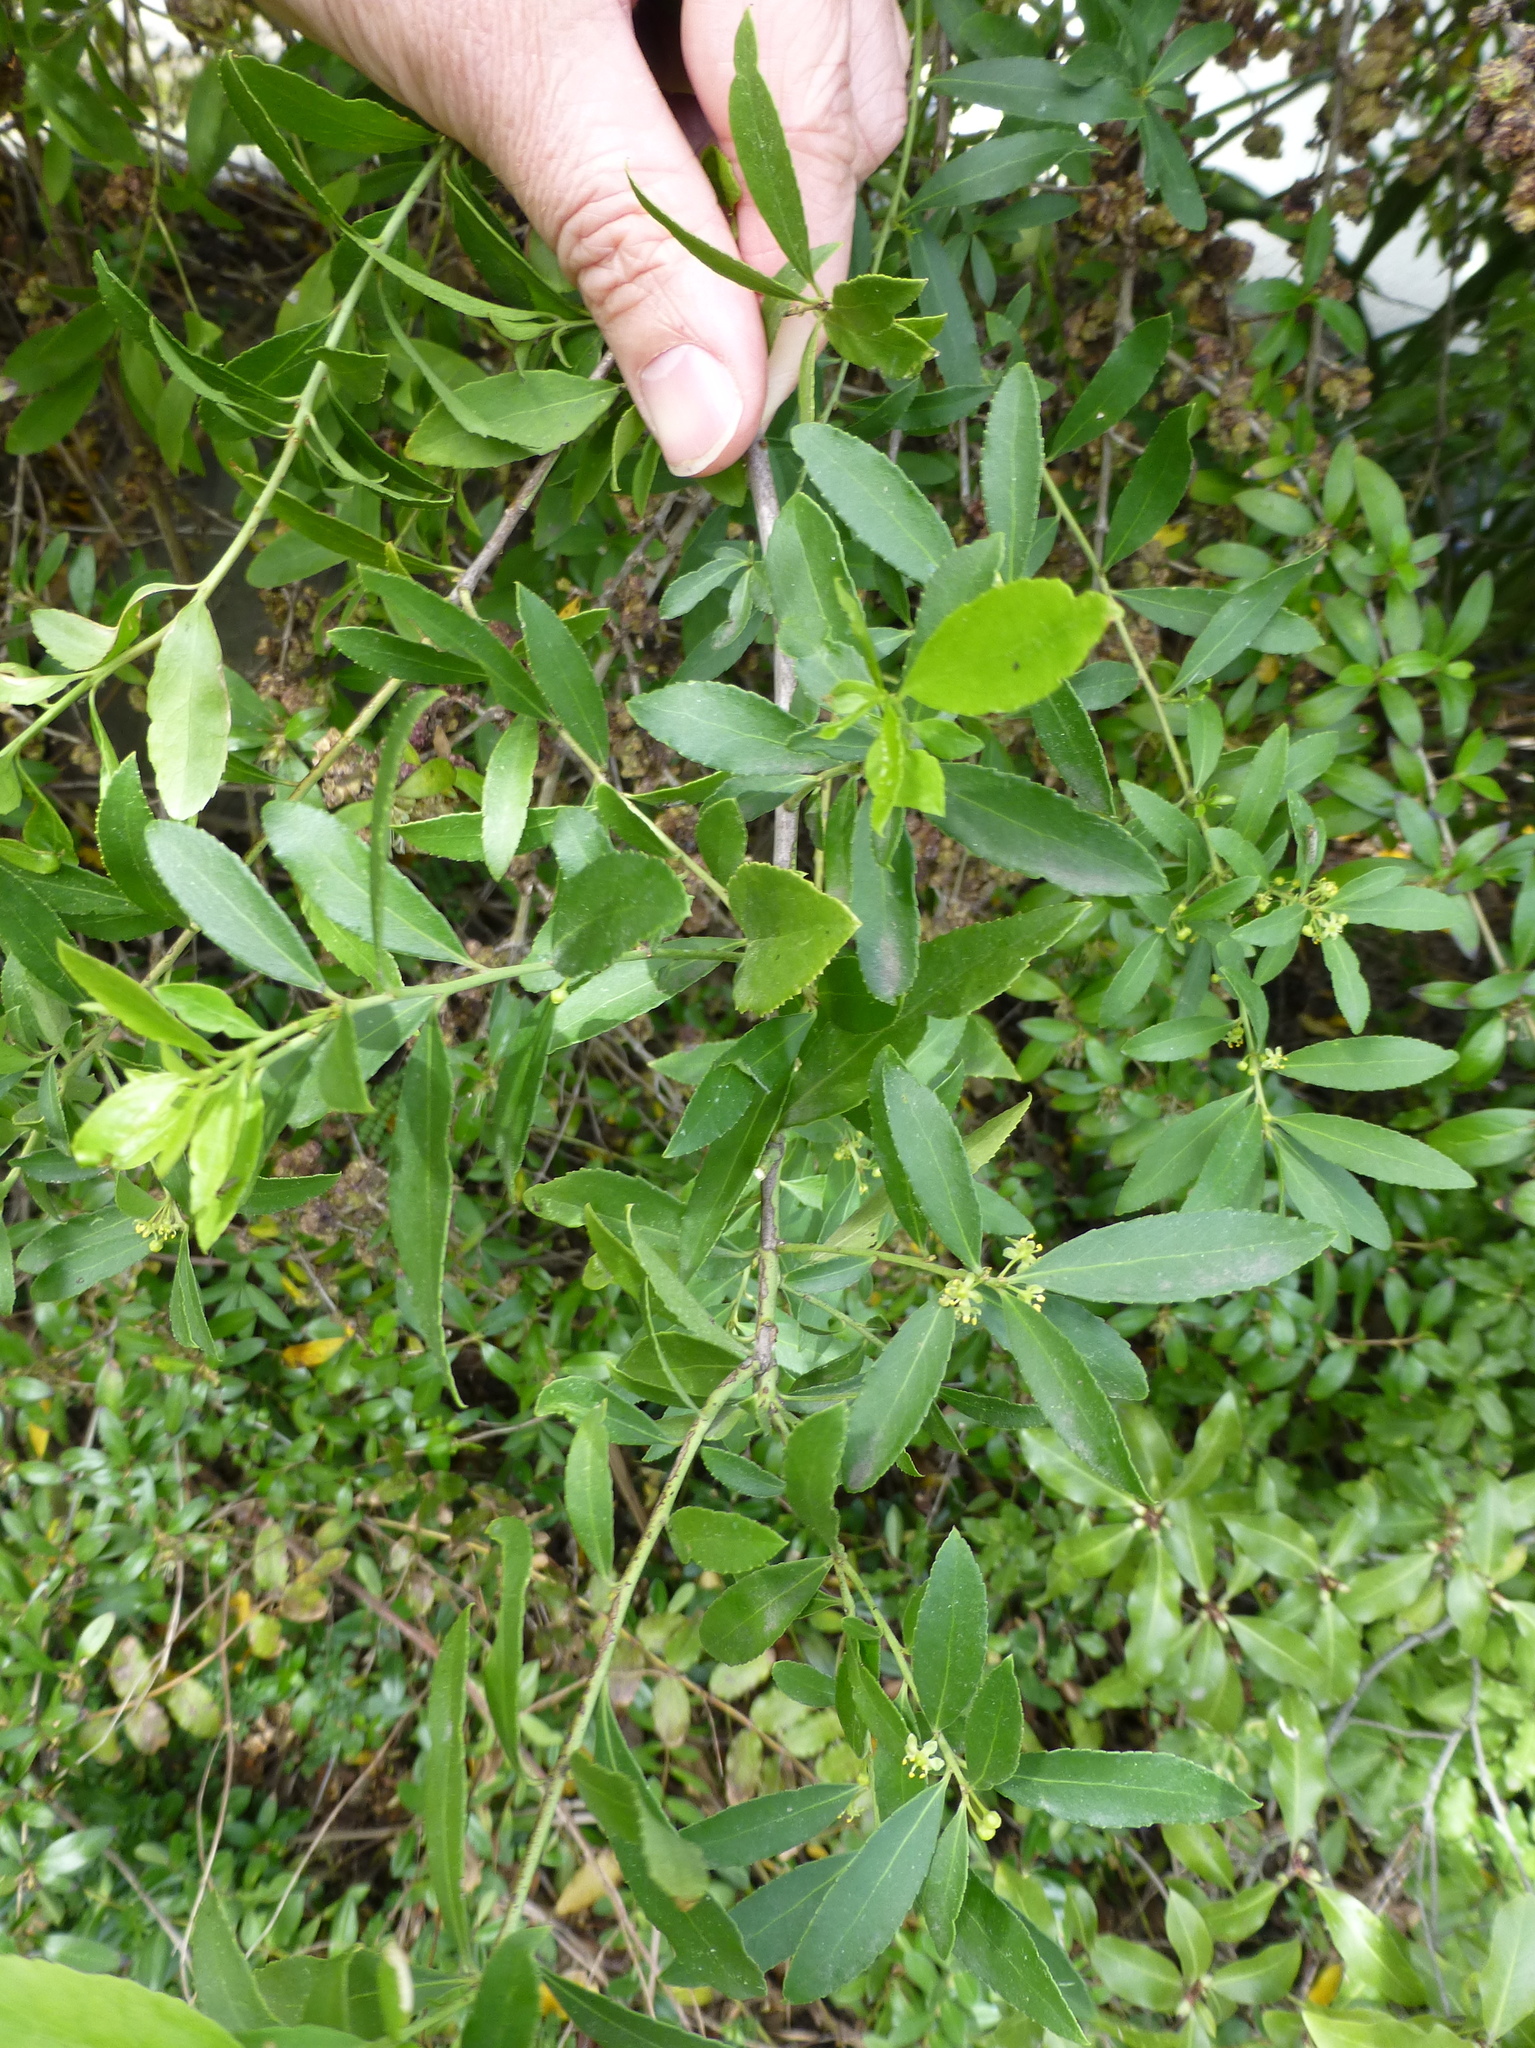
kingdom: Plantae
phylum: Tracheophyta
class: Magnoliopsida
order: Celastrales
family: Celastraceae
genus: Maytenus
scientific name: Maytenus boaria
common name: Mayten
